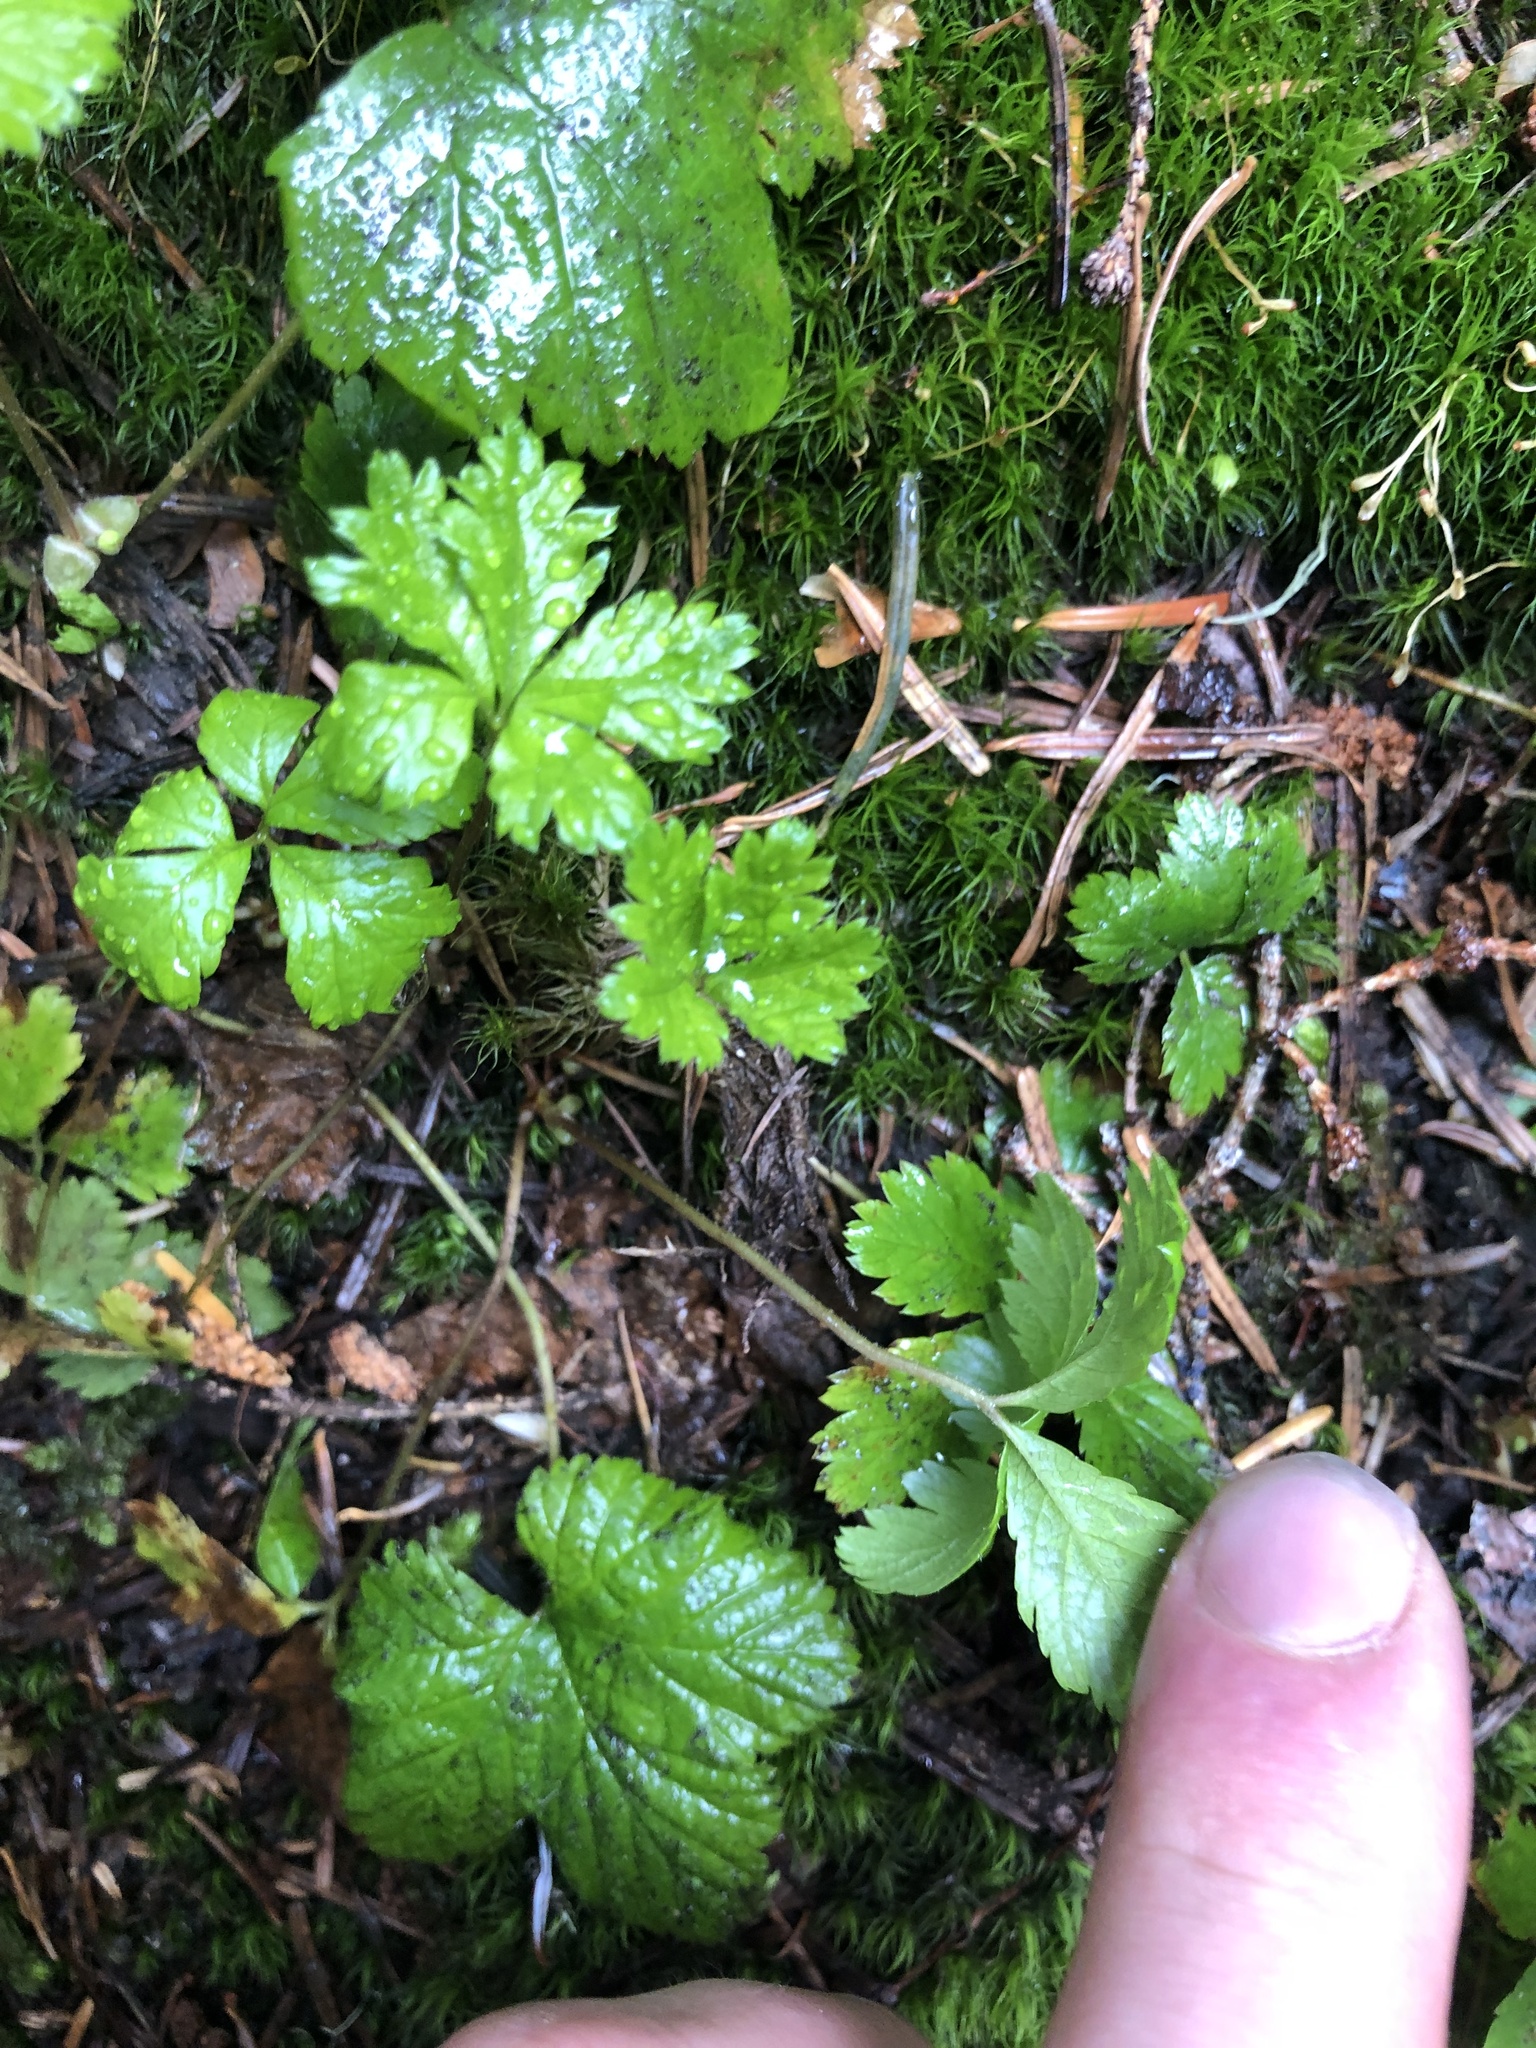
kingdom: Plantae
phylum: Tracheophyta
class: Magnoliopsida
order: Rosales
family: Rosaceae
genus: Rubus
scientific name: Rubus pedatus
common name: Creeping raspberry
